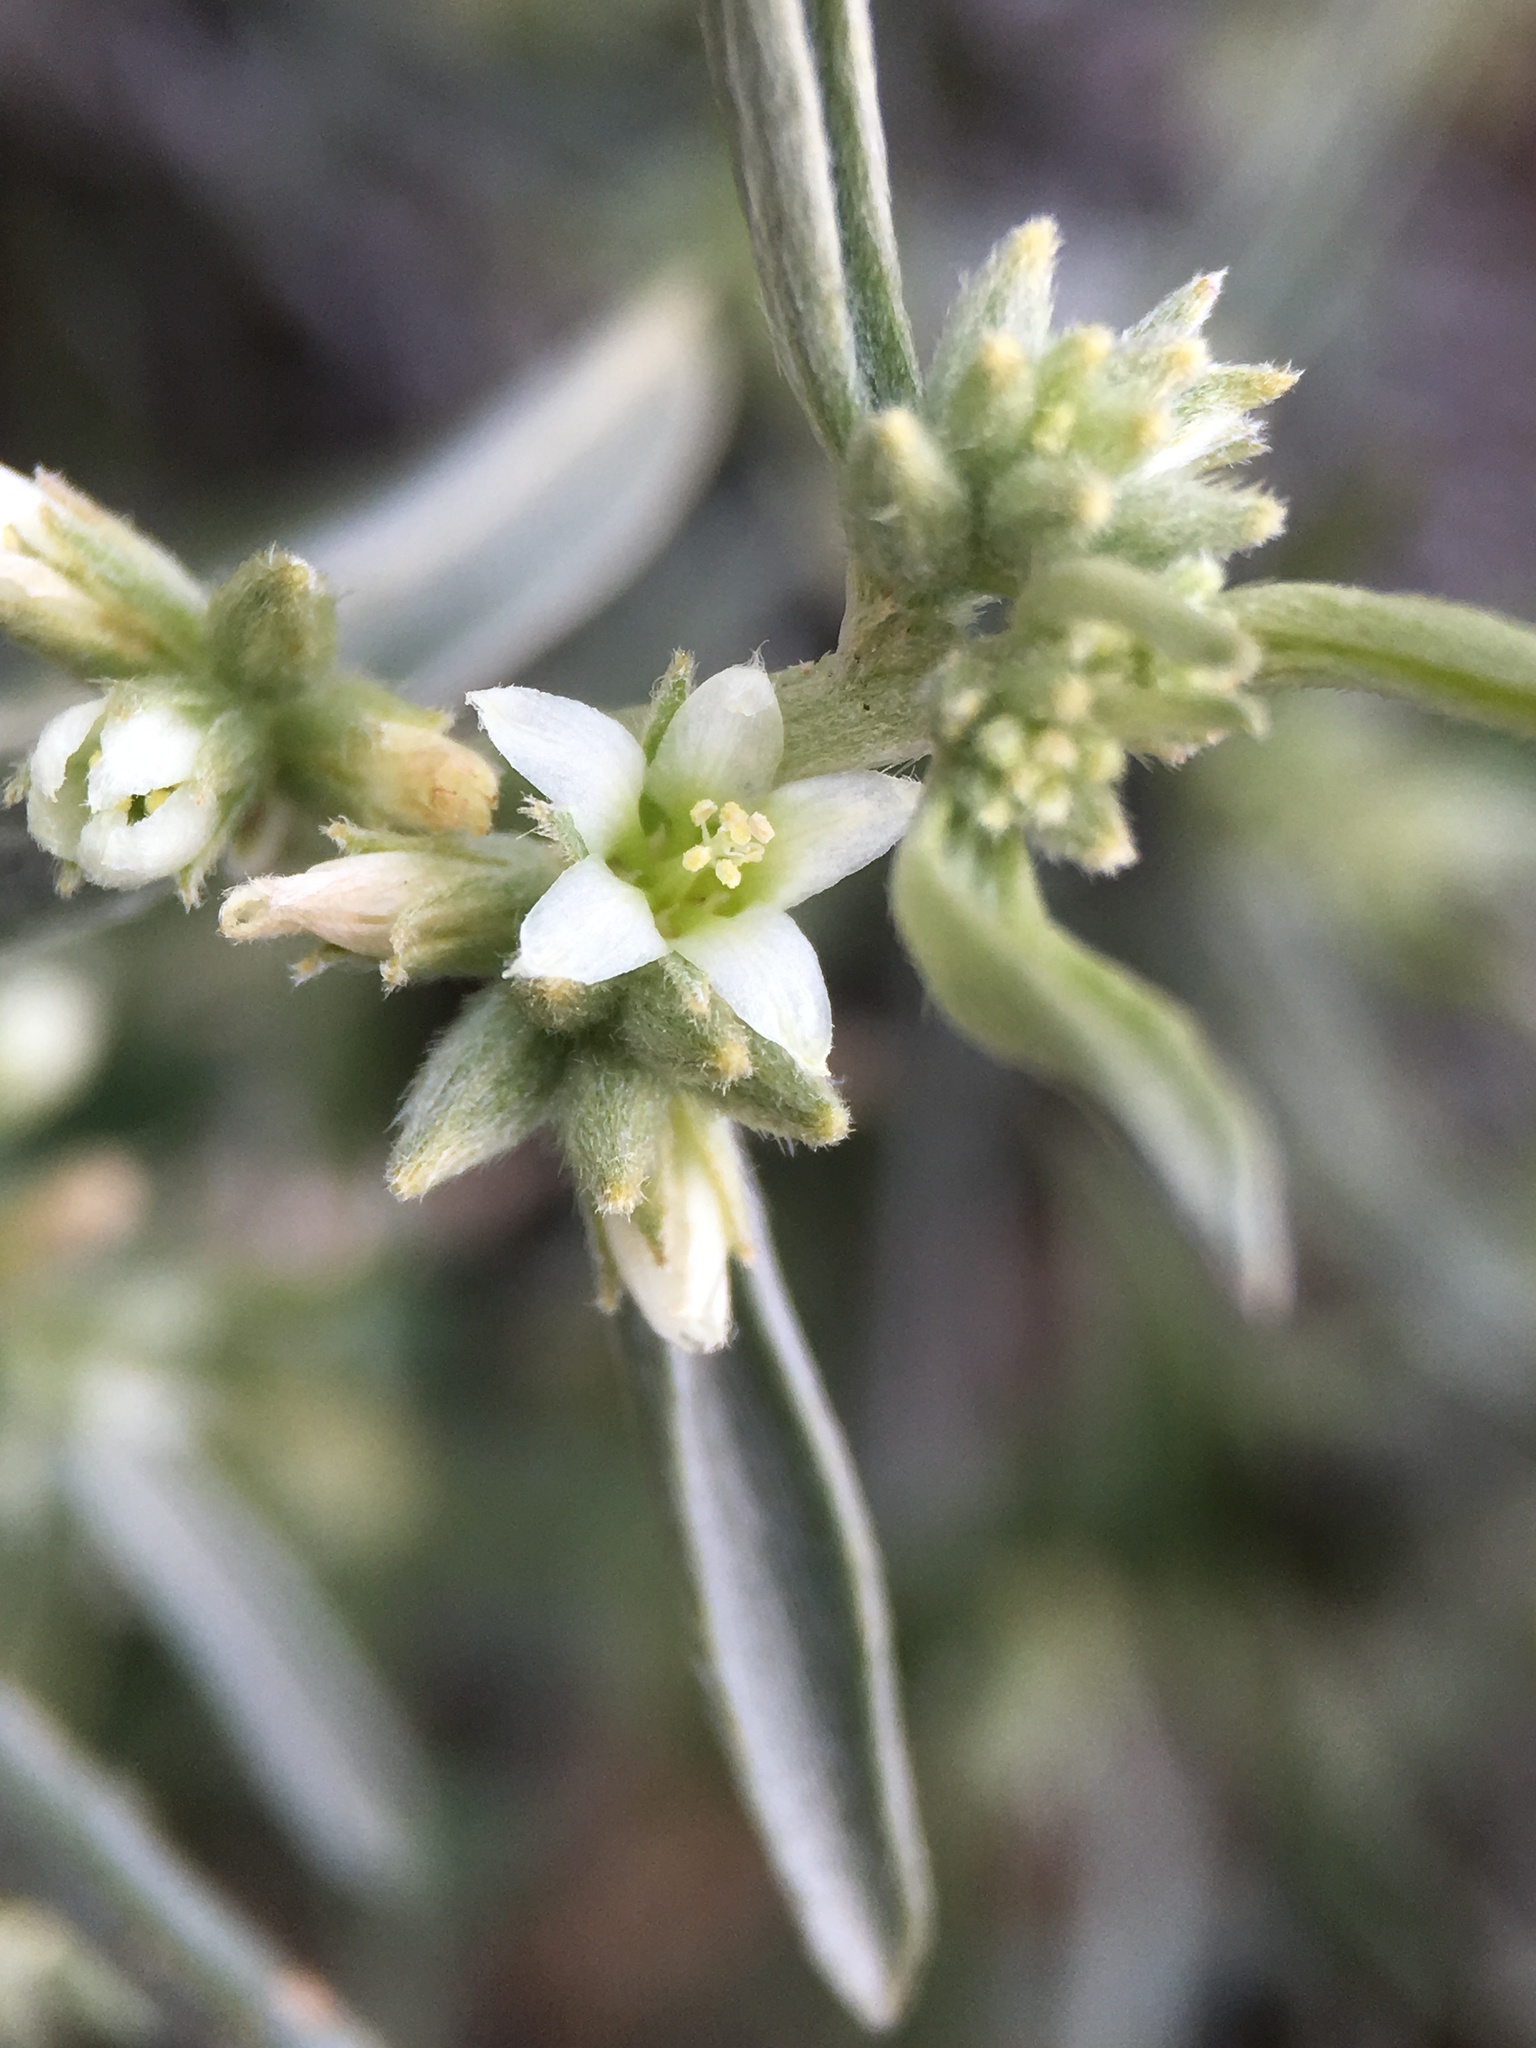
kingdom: Plantae
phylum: Tracheophyta
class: Magnoliopsida
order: Malpighiales
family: Euphorbiaceae
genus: Ditaxis
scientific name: Ditaxis lanceolata
